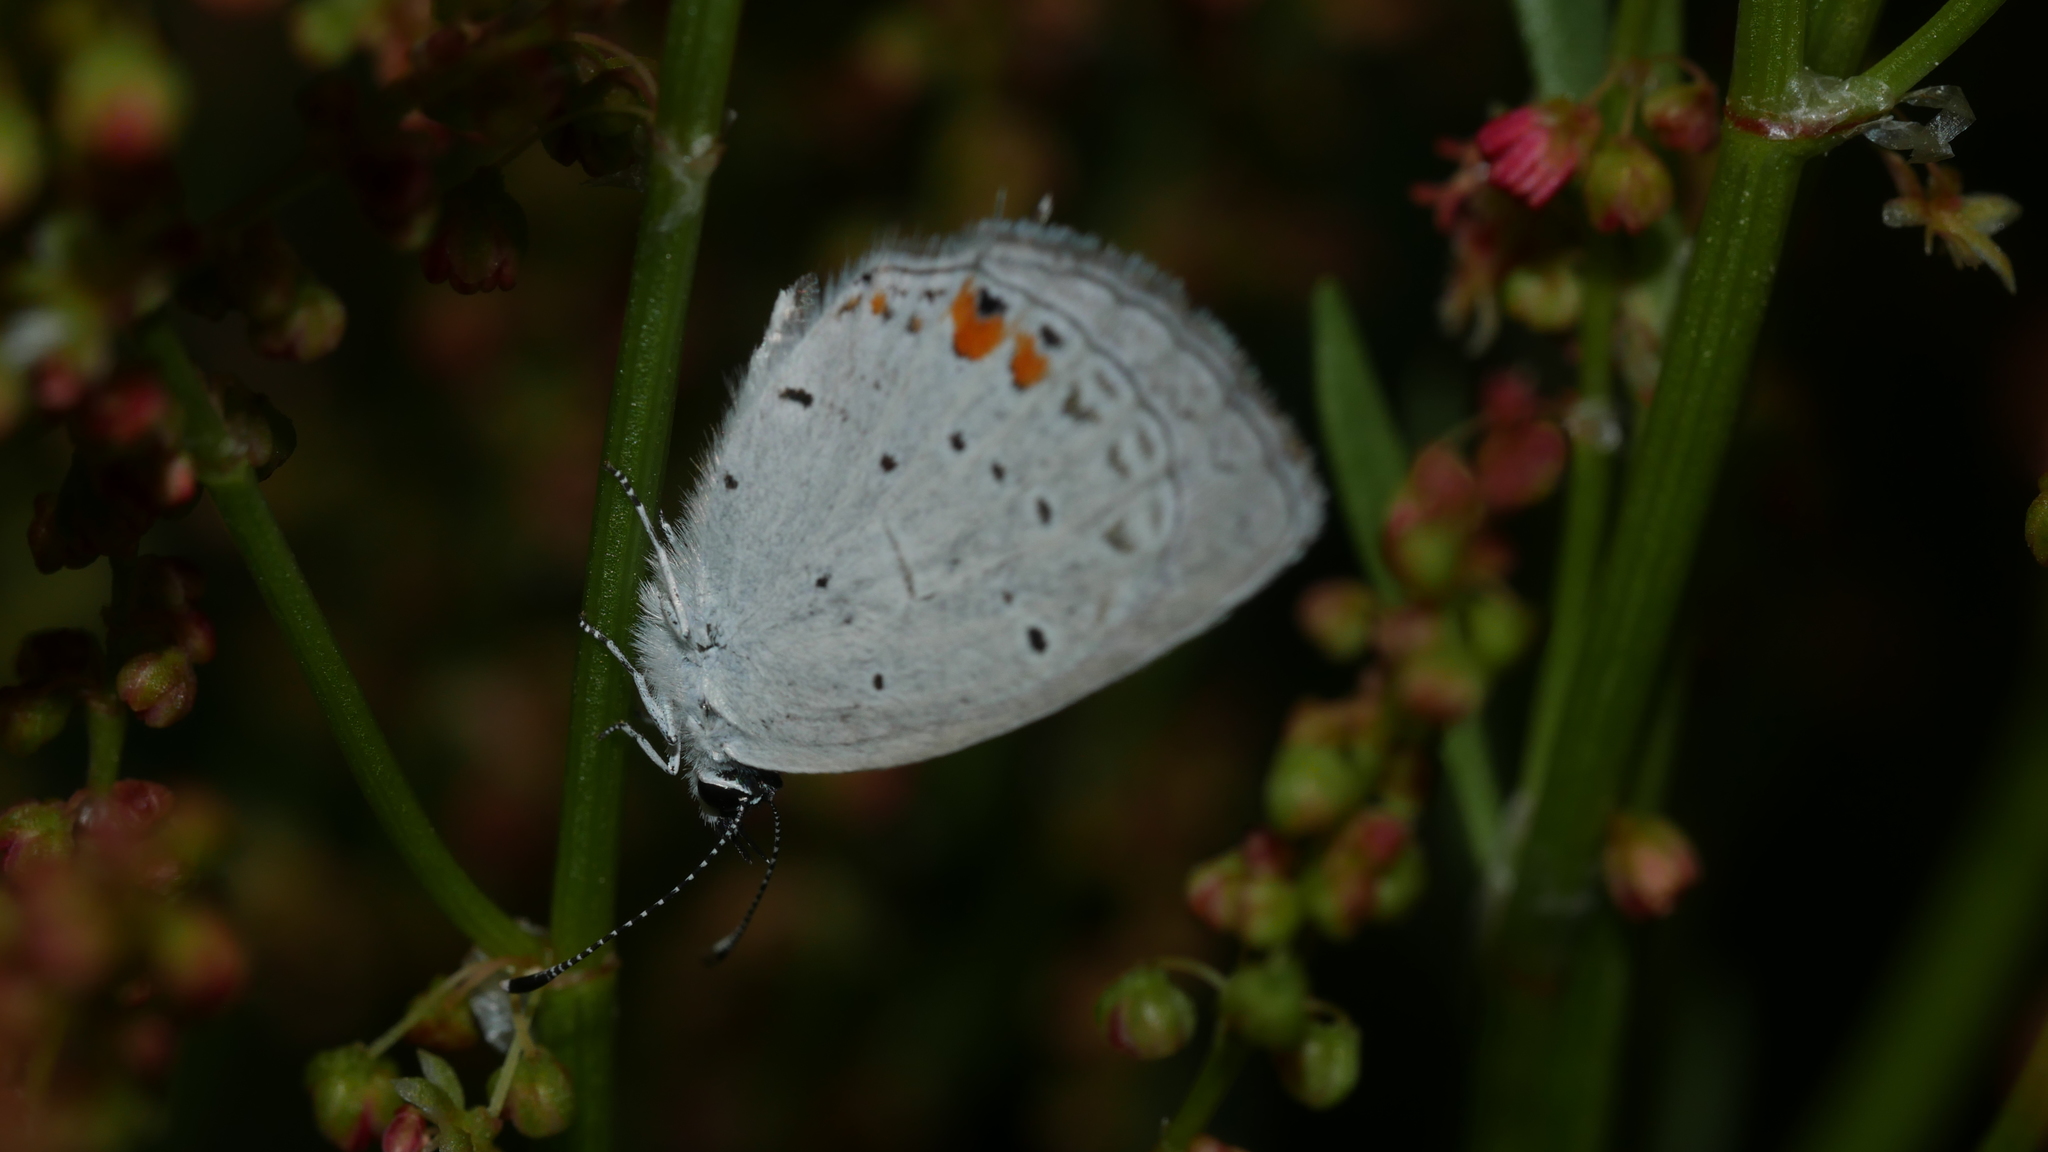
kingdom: Animalia
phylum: Arthropoda
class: Insecta
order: Lepidoptera
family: Lycaenidae
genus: Elkalyce
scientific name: Elkalyce comyntas
